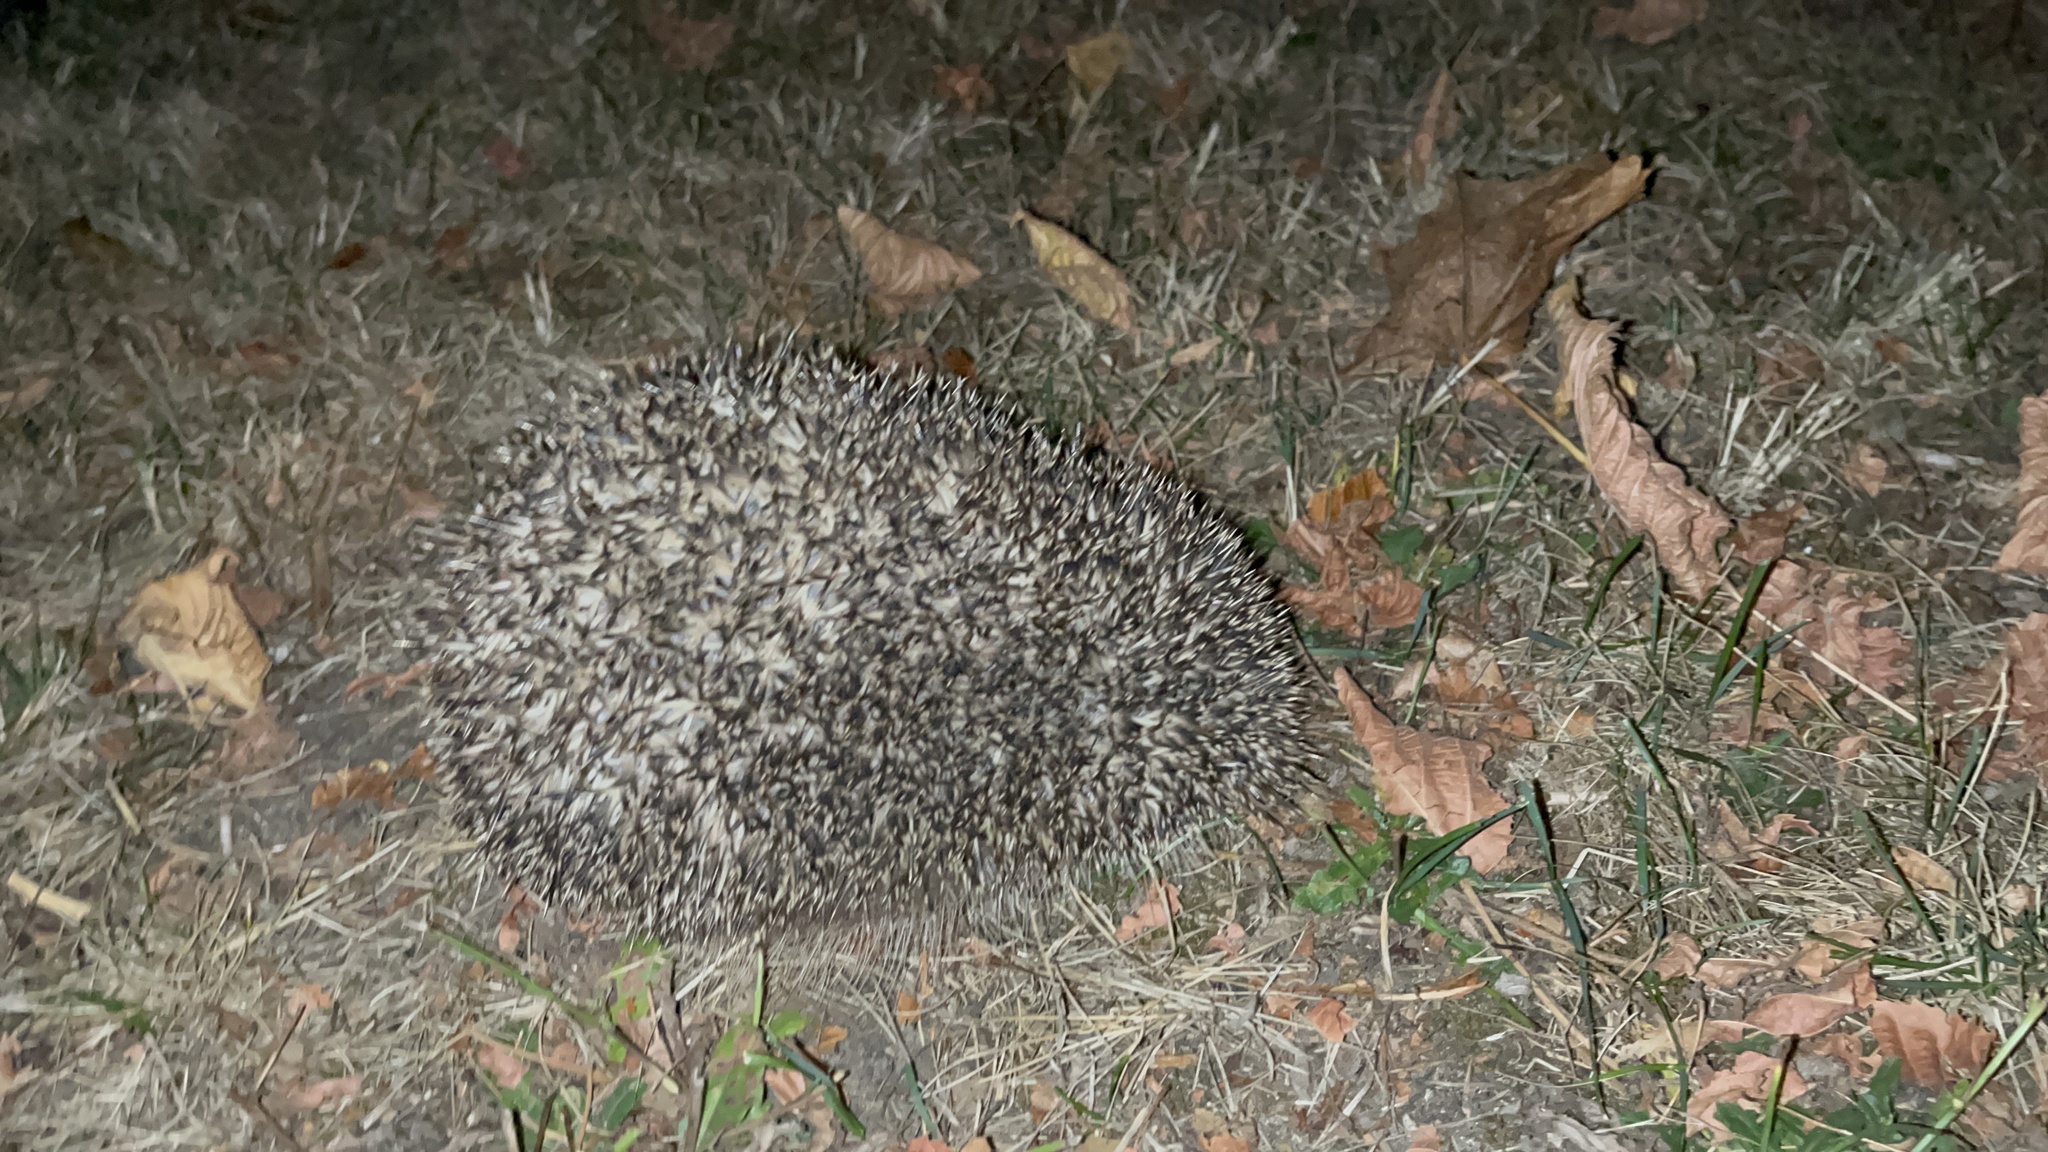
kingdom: Animalia
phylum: Chordata
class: Mammalia
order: Erinaceomorpha
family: Erinaceidae
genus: Erinaceus
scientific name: Erinaceus europaeus
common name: West european hedgehog
